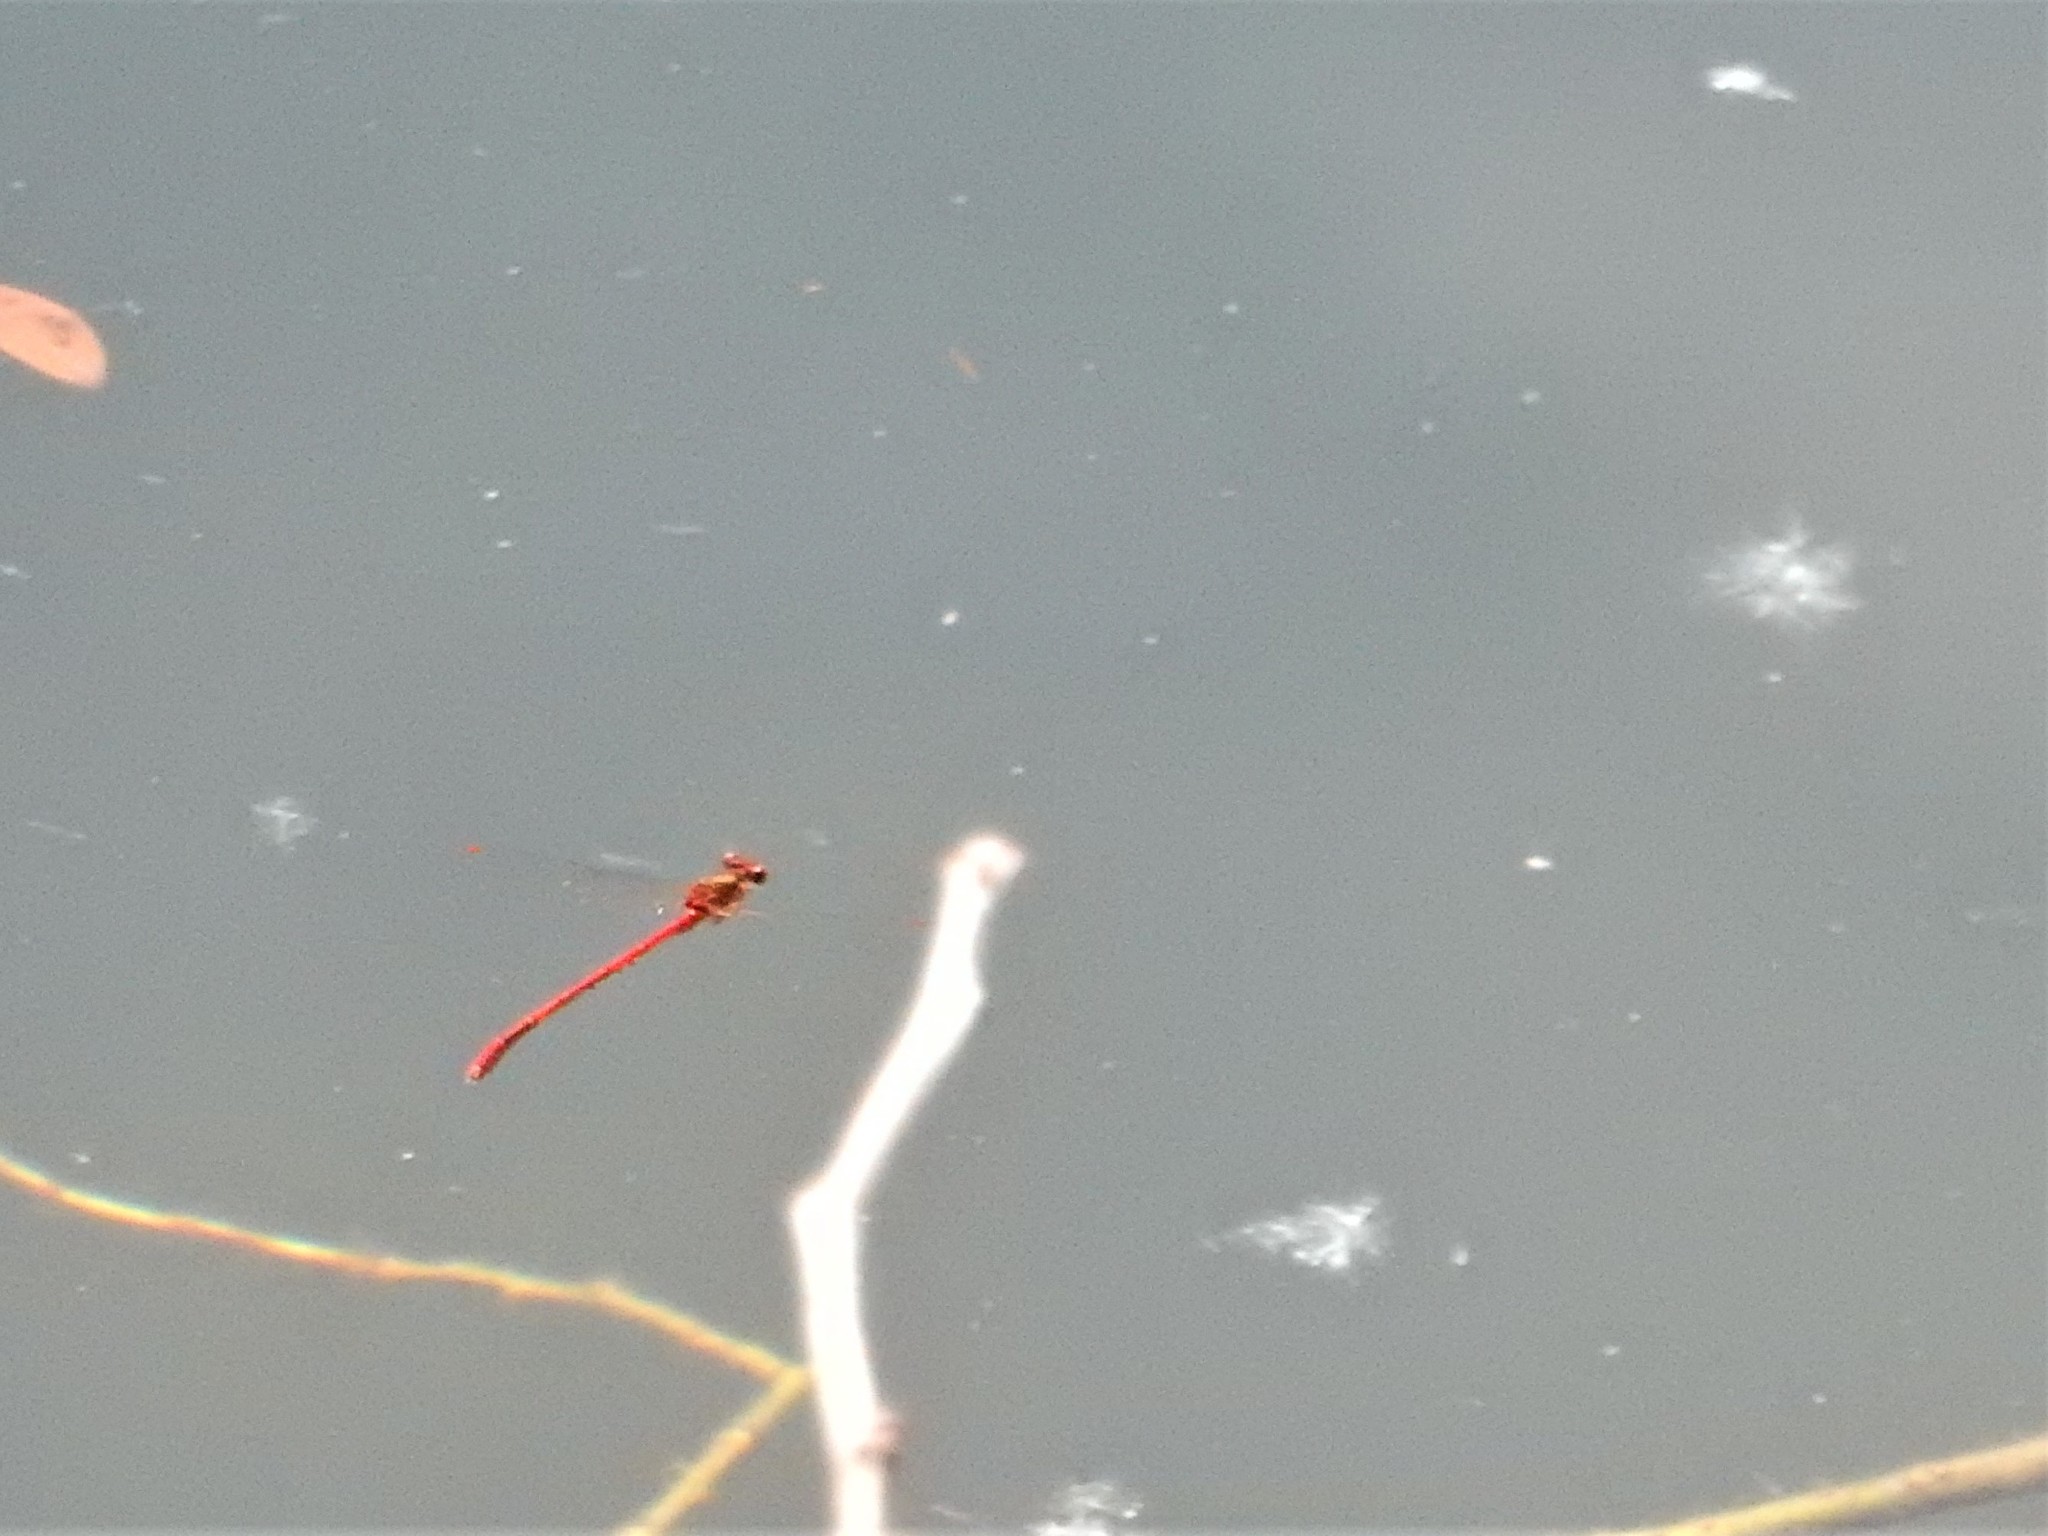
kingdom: Animalia
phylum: Arthropoda
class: Insecta
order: Odonata
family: Coenagrionidae
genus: Xanthocnemis
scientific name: Xanthocnemis zealandica
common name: Common redcoat damselfly
